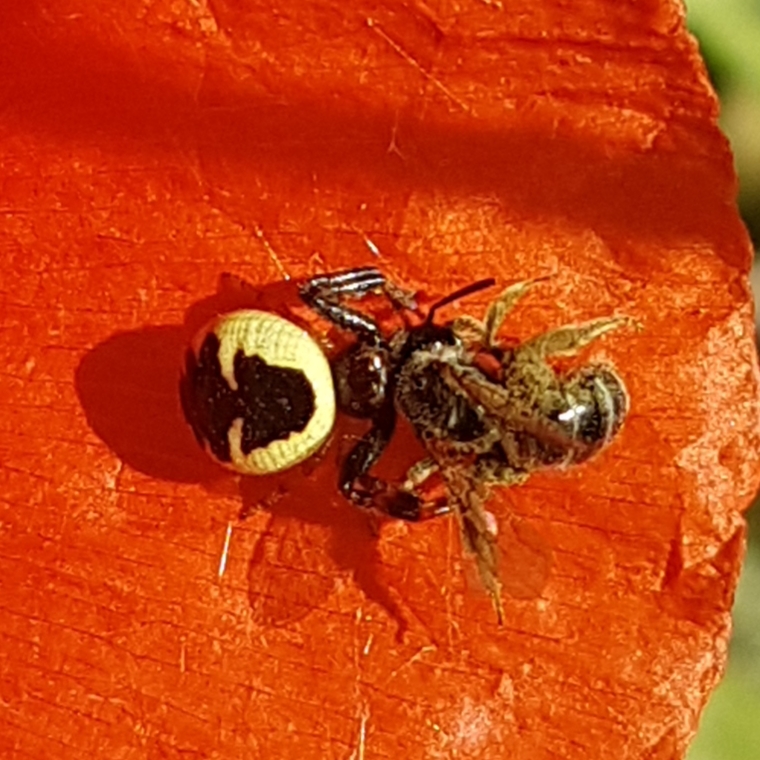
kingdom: Animalia
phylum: Arthropoda
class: Arachnida
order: Araneae
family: Thomisidae
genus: Synema
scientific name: Synema globosum
